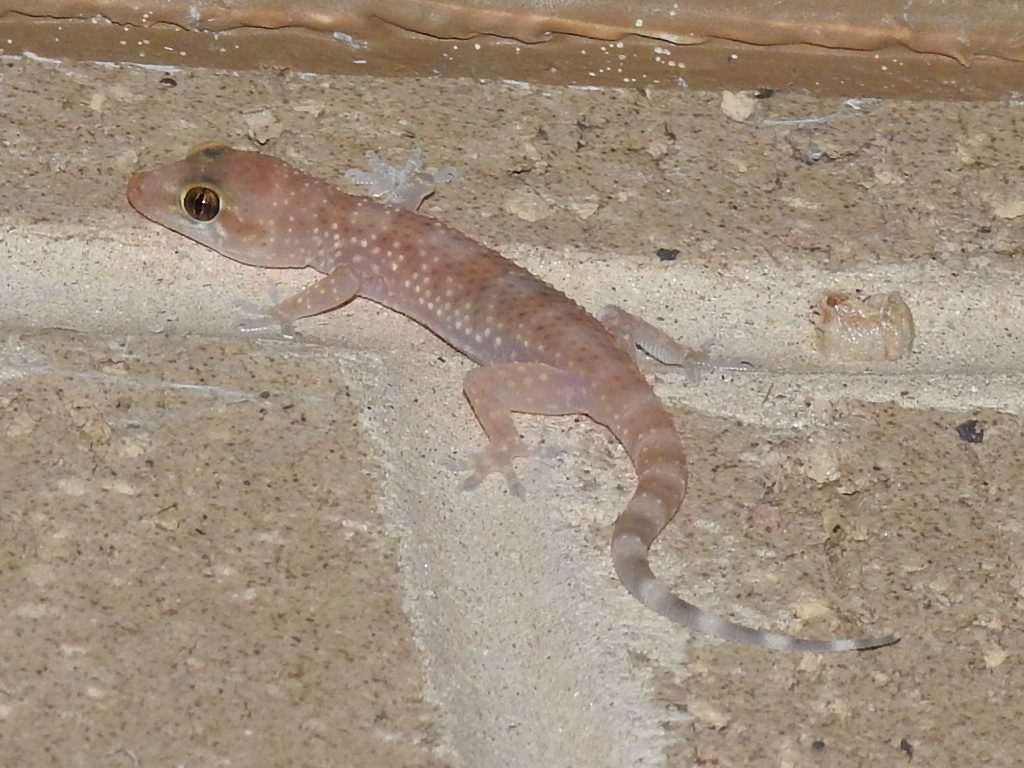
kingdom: Animalia
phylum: Chordata
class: Squamata
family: Gekkonidae
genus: Hemidactylus
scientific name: Hemidactylus turcicus
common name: Turkish gecko
